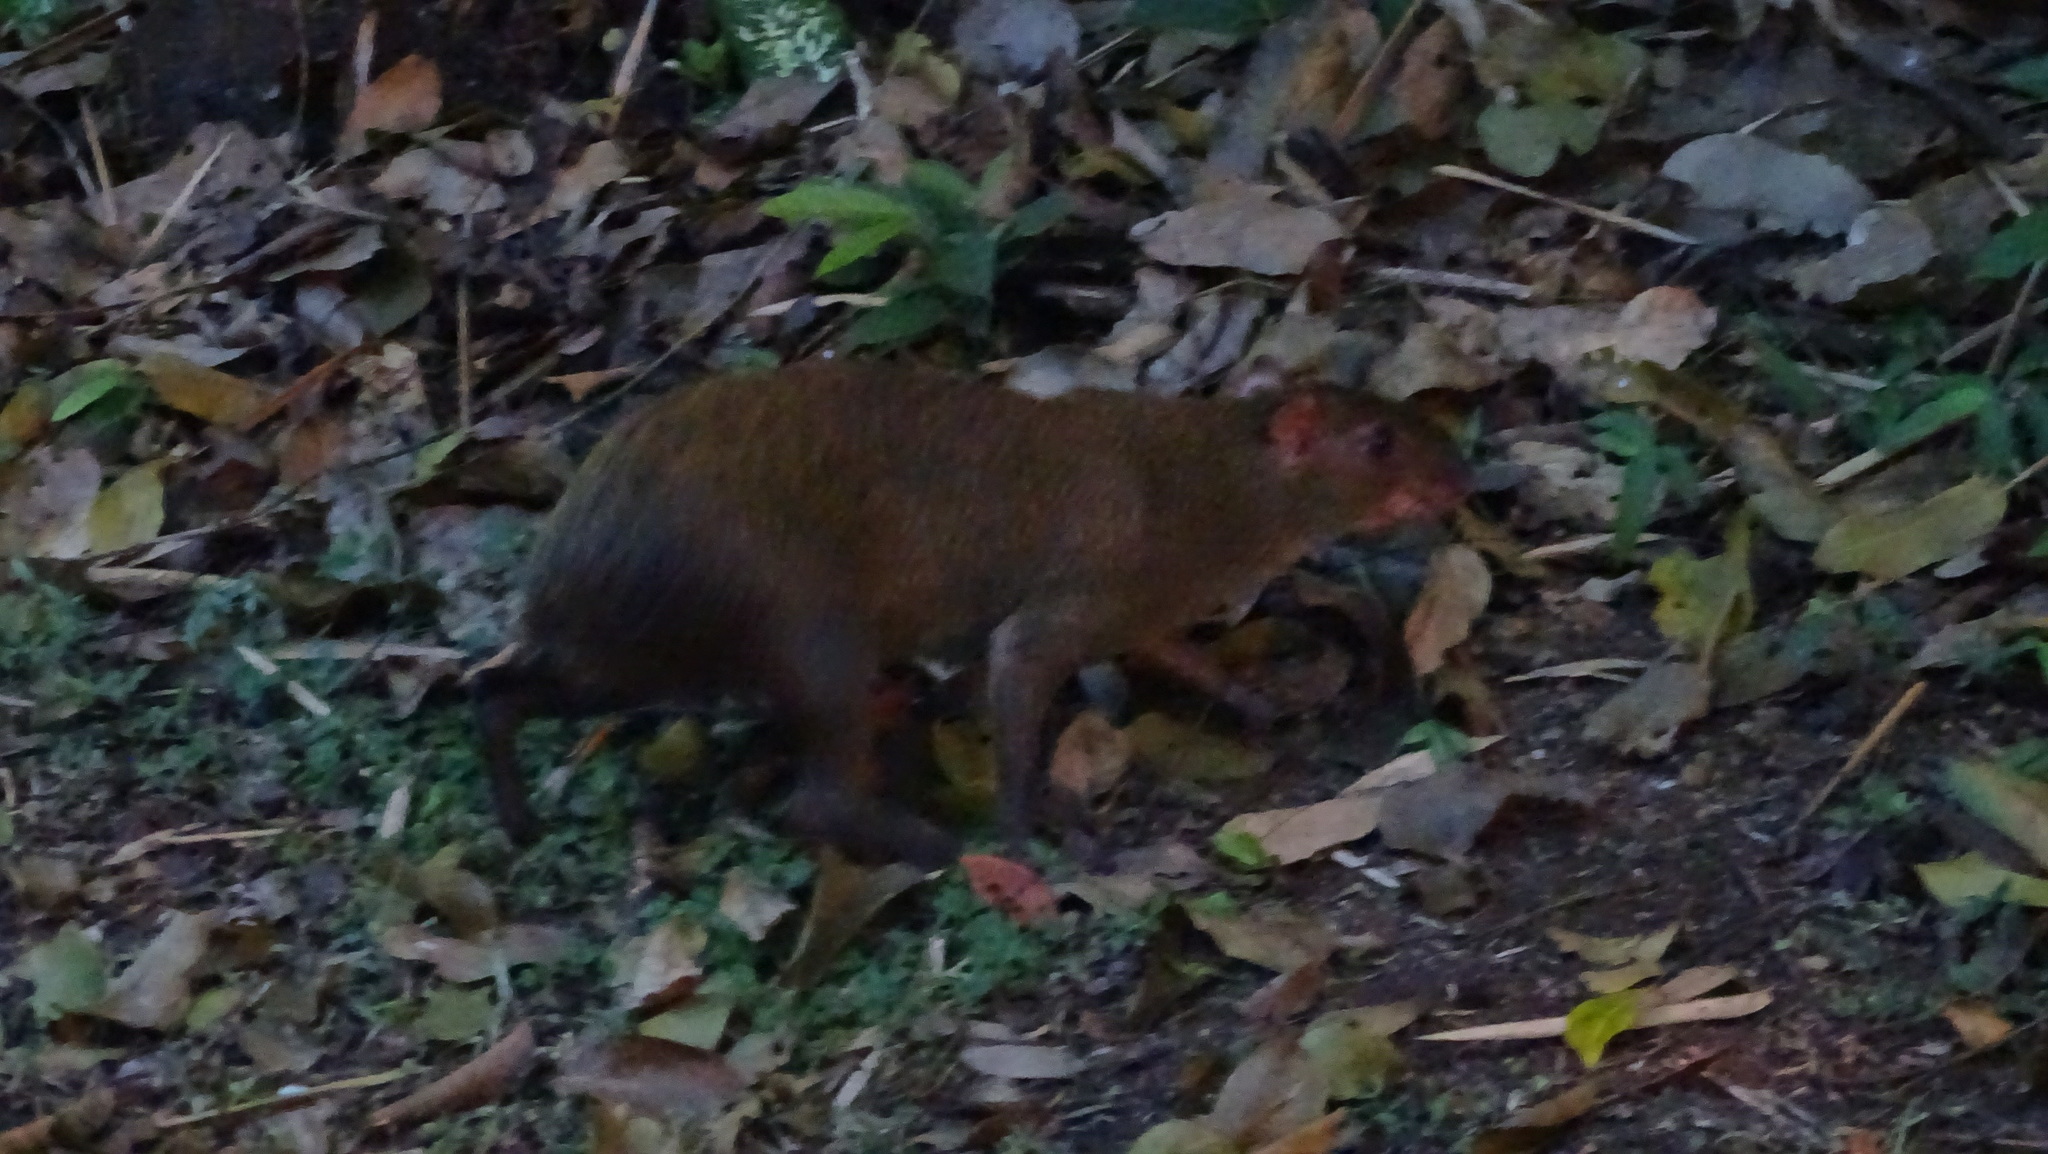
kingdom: Animalia
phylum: Chordata
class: Mammalia
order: Rodentia
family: Dasyproctidae
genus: Dasyprocta
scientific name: Dasyprocta punctata
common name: Central american agouti
